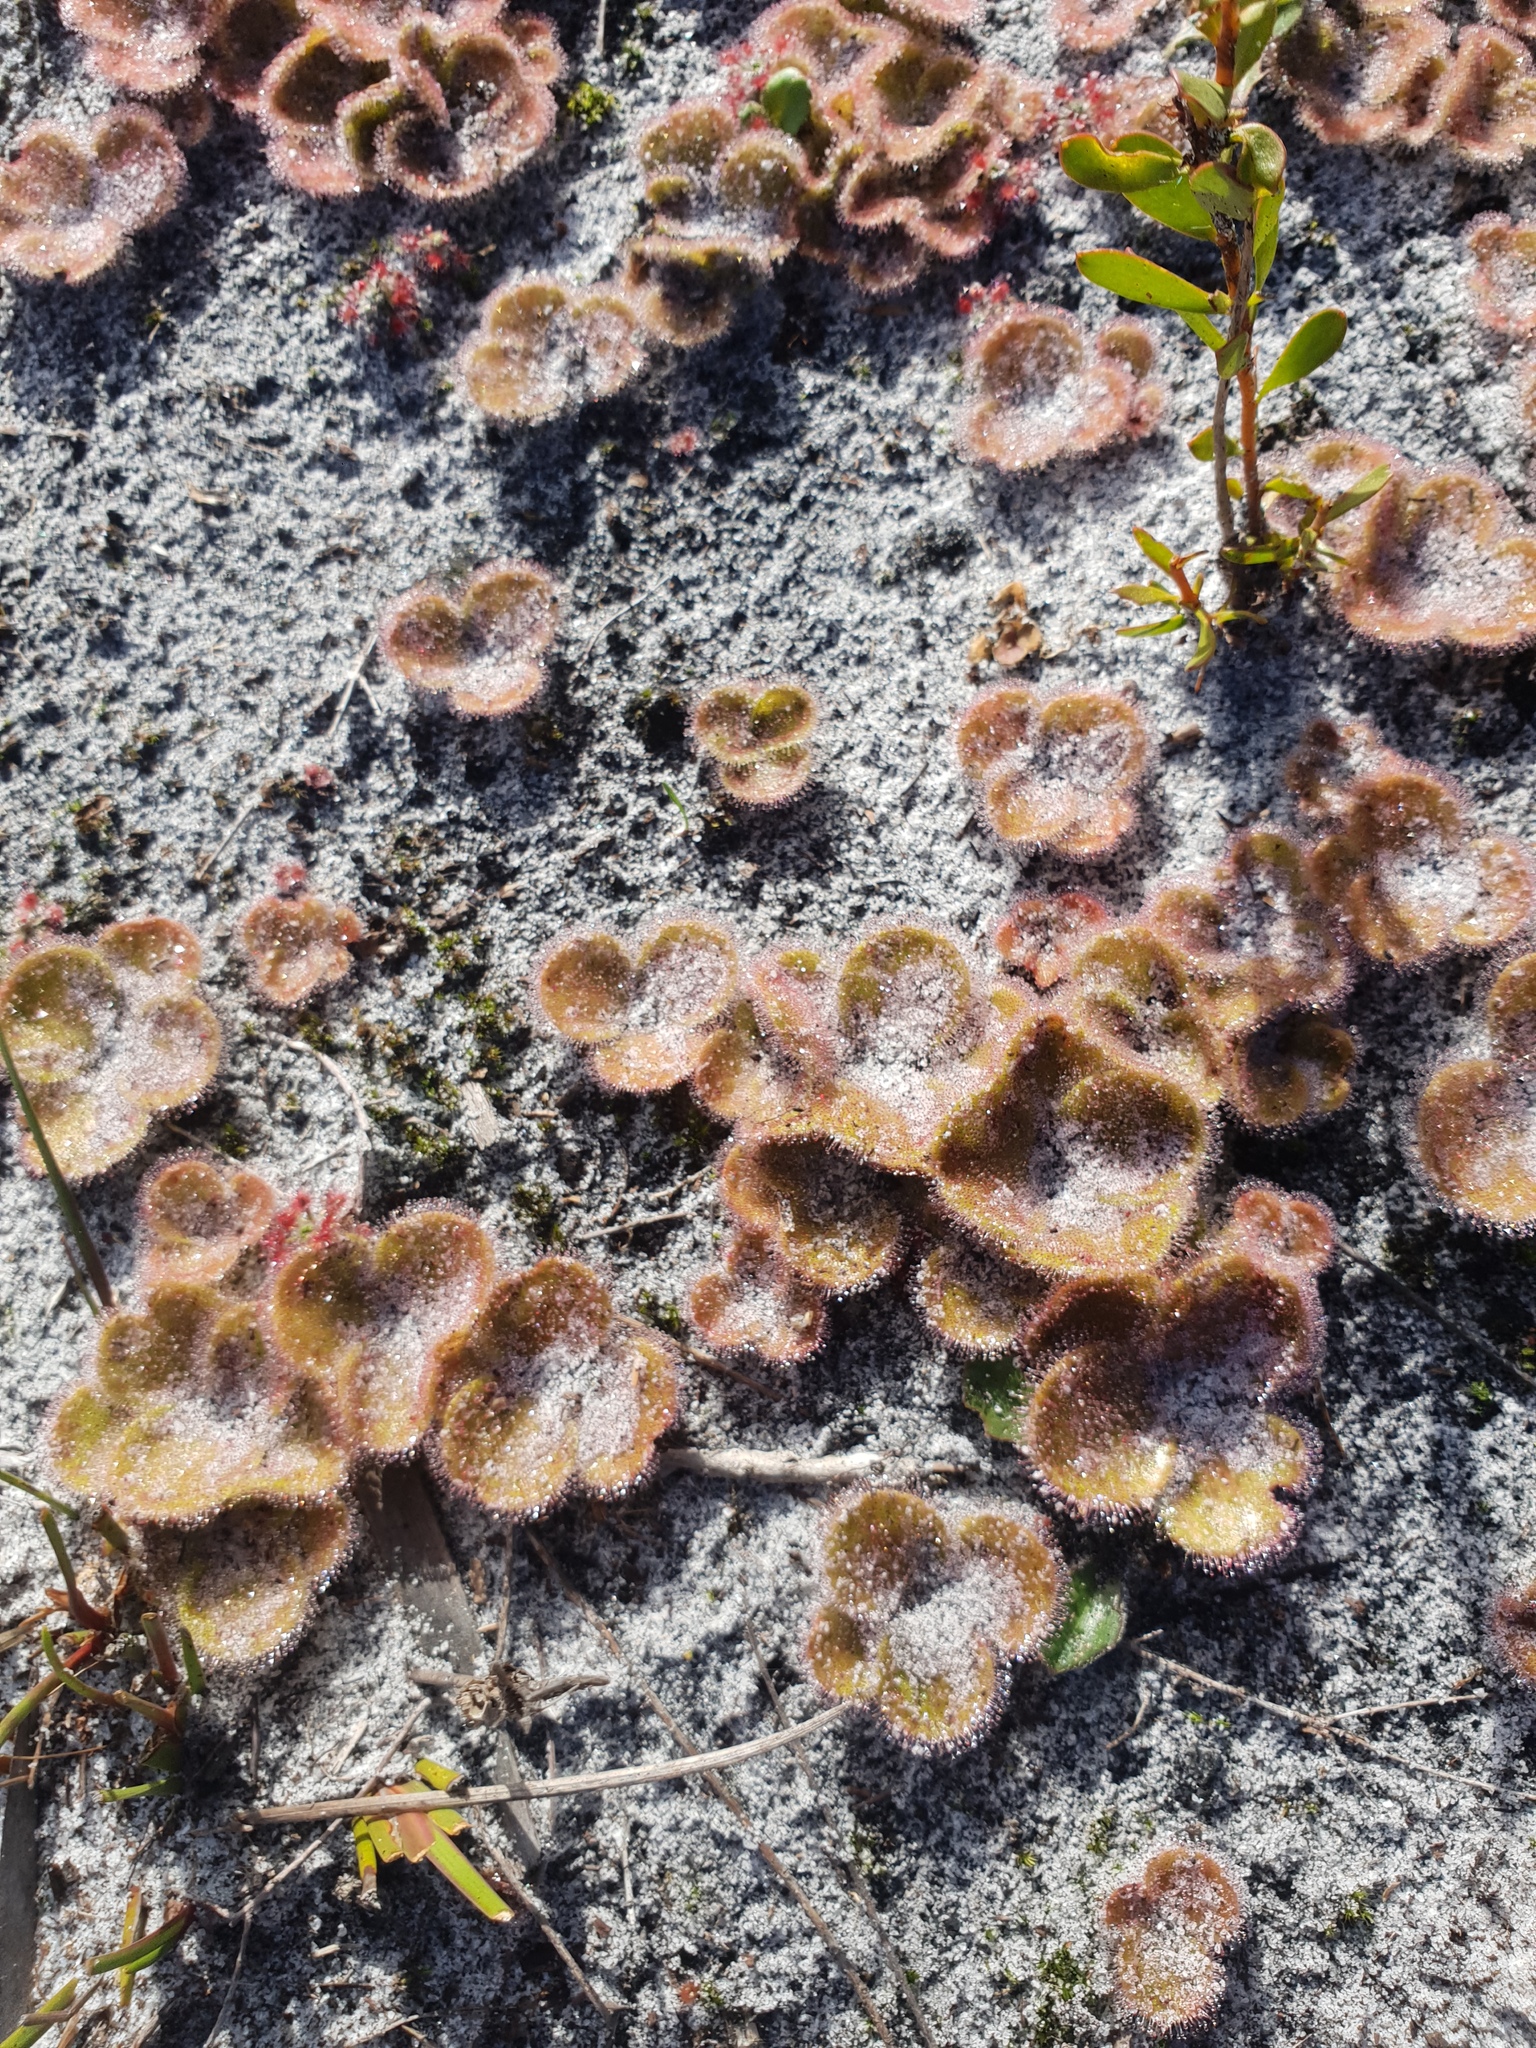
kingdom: Plantae
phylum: Tracheophyta
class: Magnoliopsida
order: Caryophyllales
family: Droseraceae
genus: Drosera
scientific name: Drosera erythrorhiza
